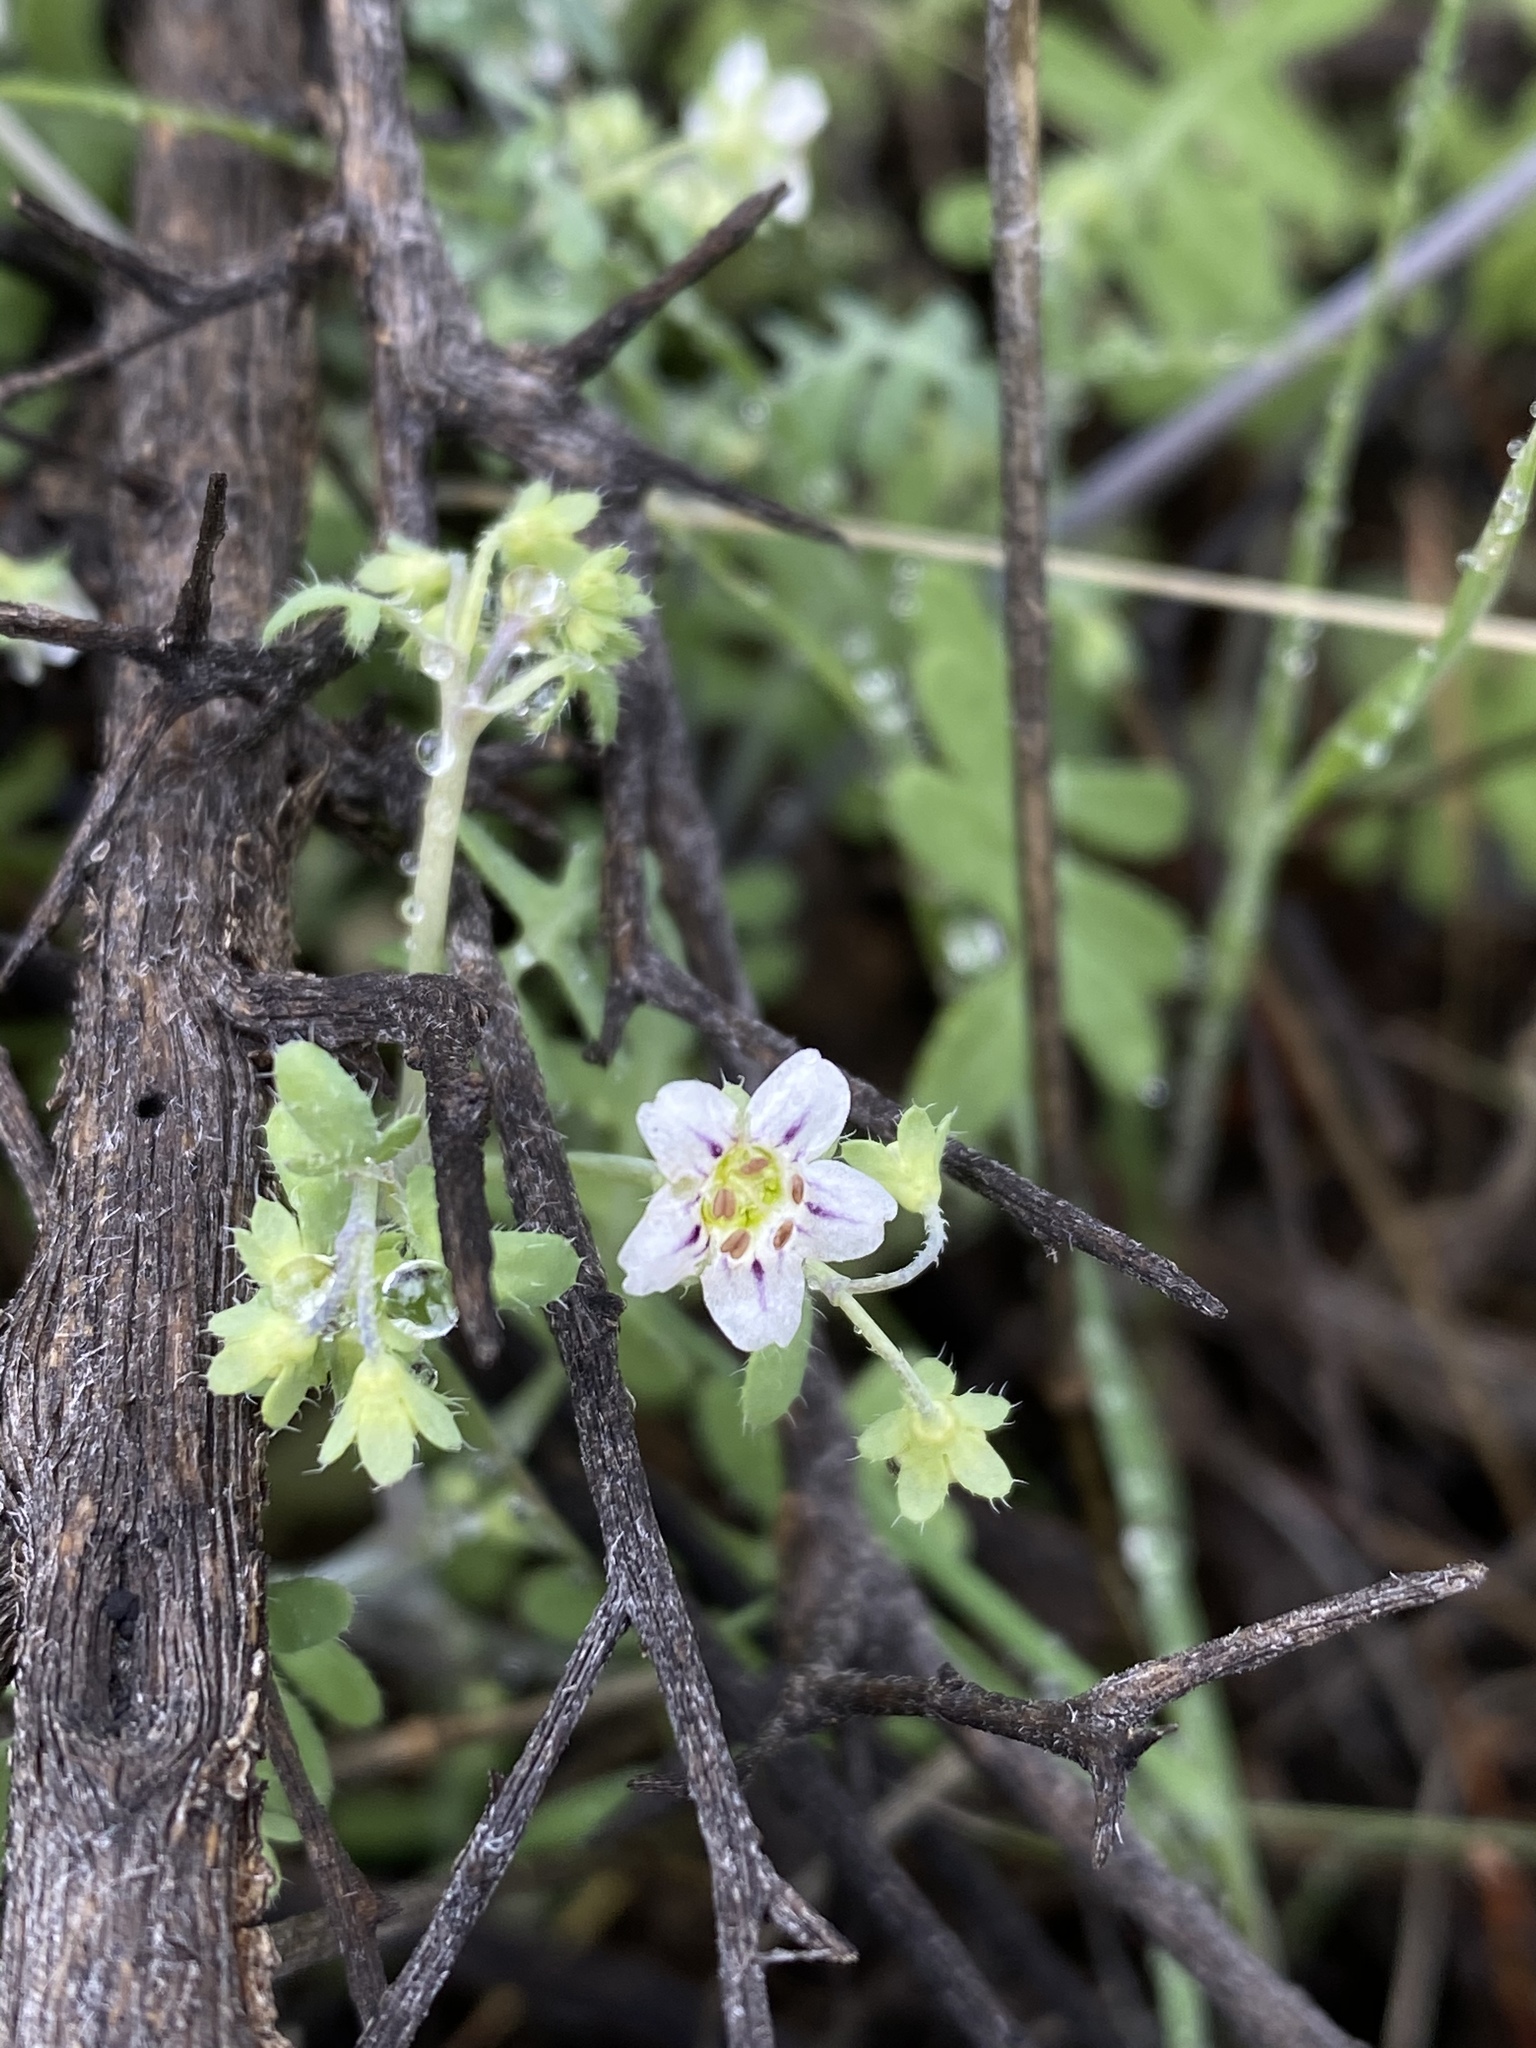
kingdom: Plantae
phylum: Tracheophyta
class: Magnoliopsida
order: Boraginales
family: Hydrophyllaceae
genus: Pholistoma
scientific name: Pholistoma membranaceum
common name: White fiesta-flower
